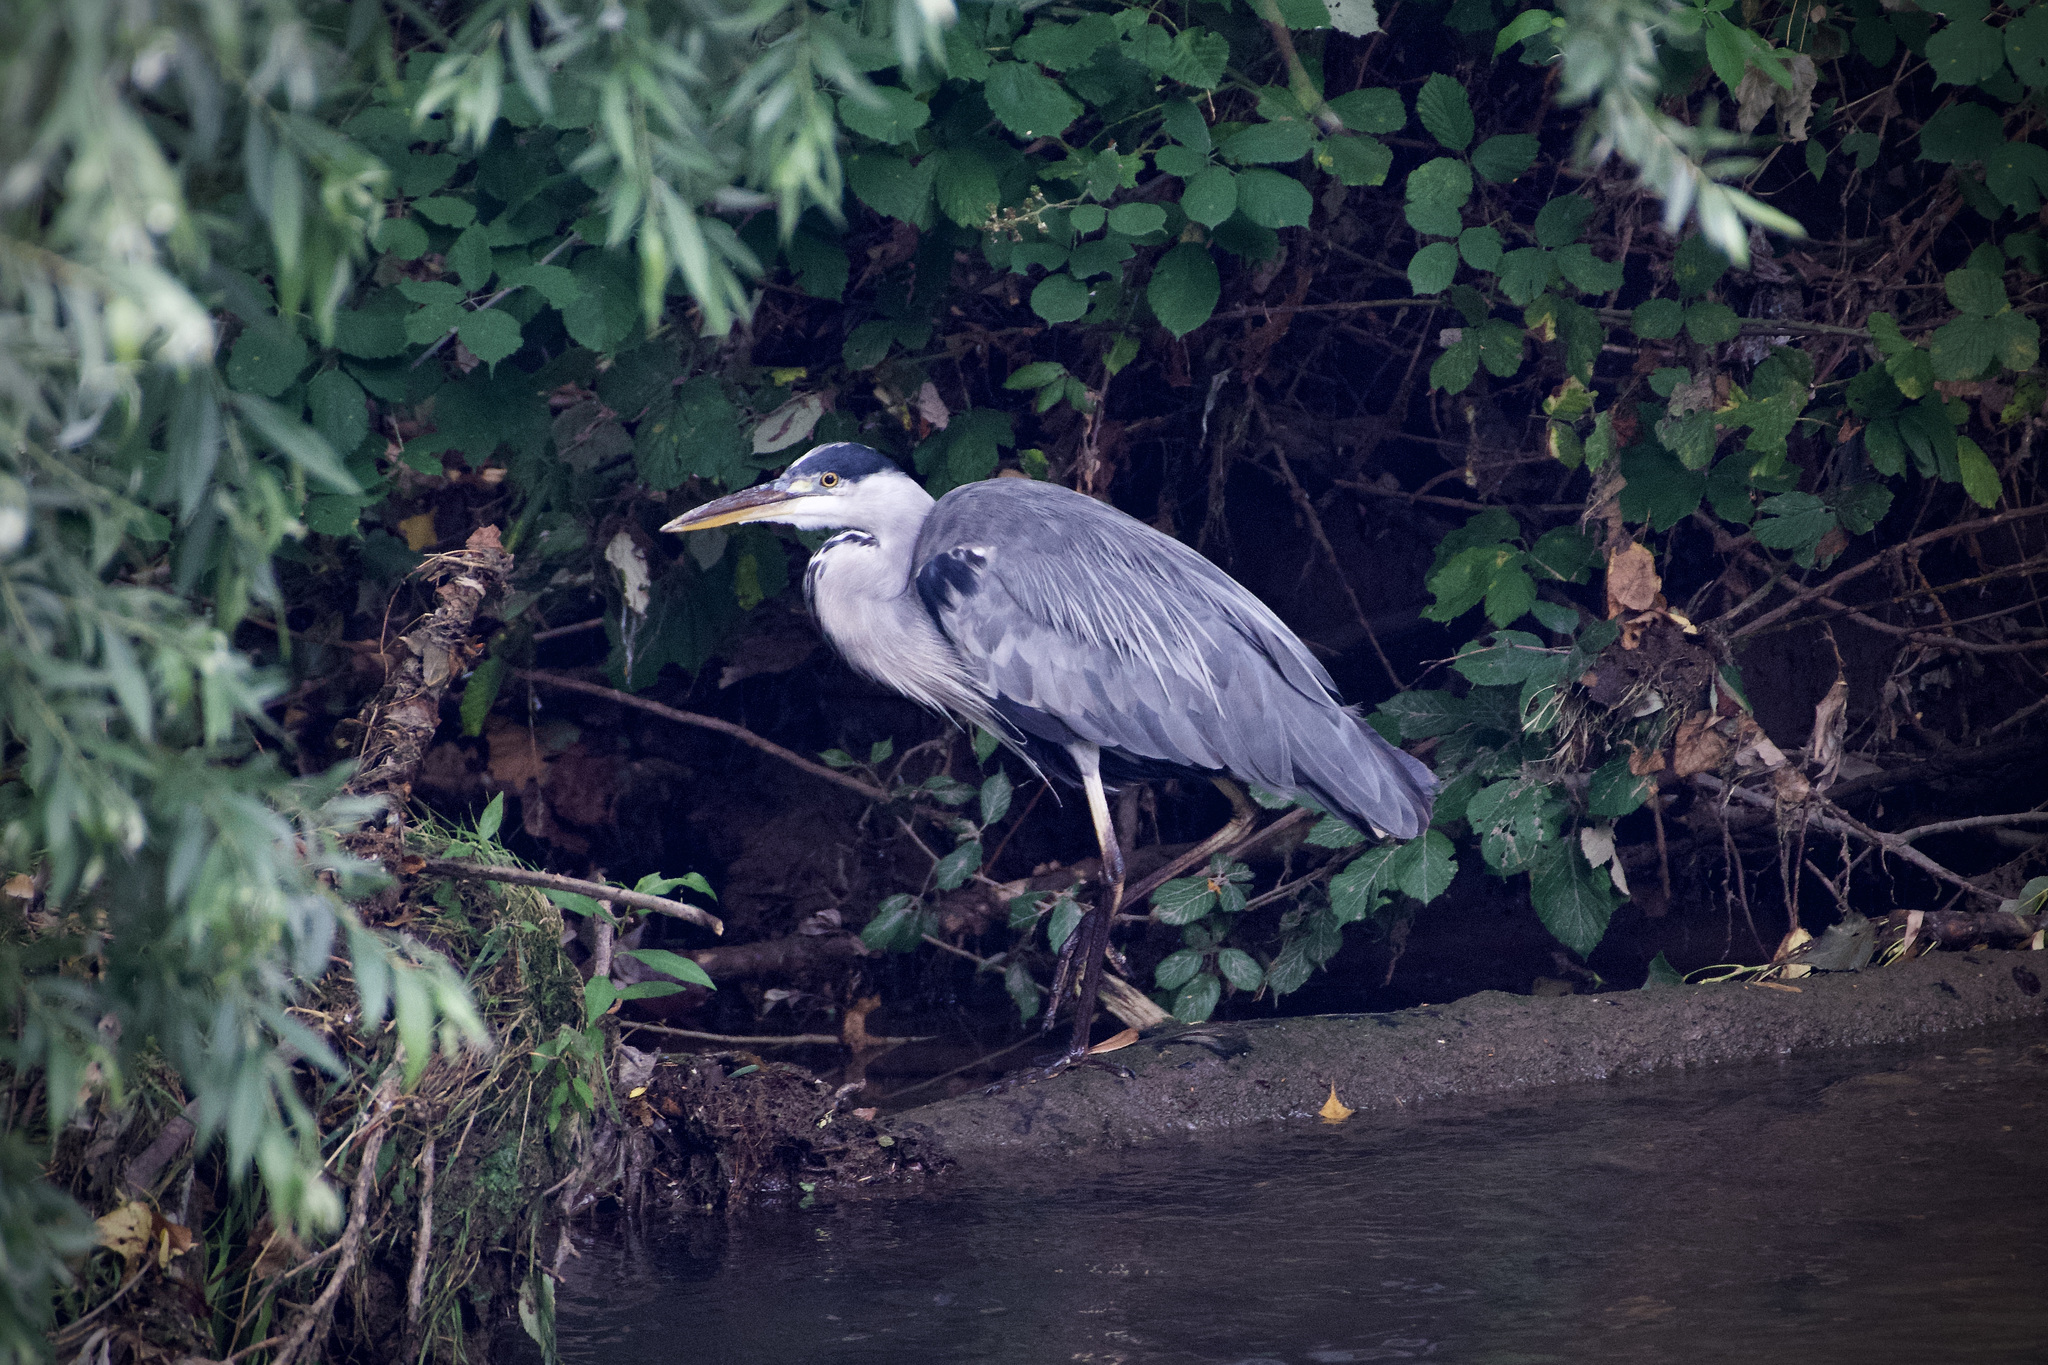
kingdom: Animalia
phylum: Chordata
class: Aves
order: Pelecaniformes
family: Ardeidae
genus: Ardea
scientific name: Ardea cinerea
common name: Grey heron
